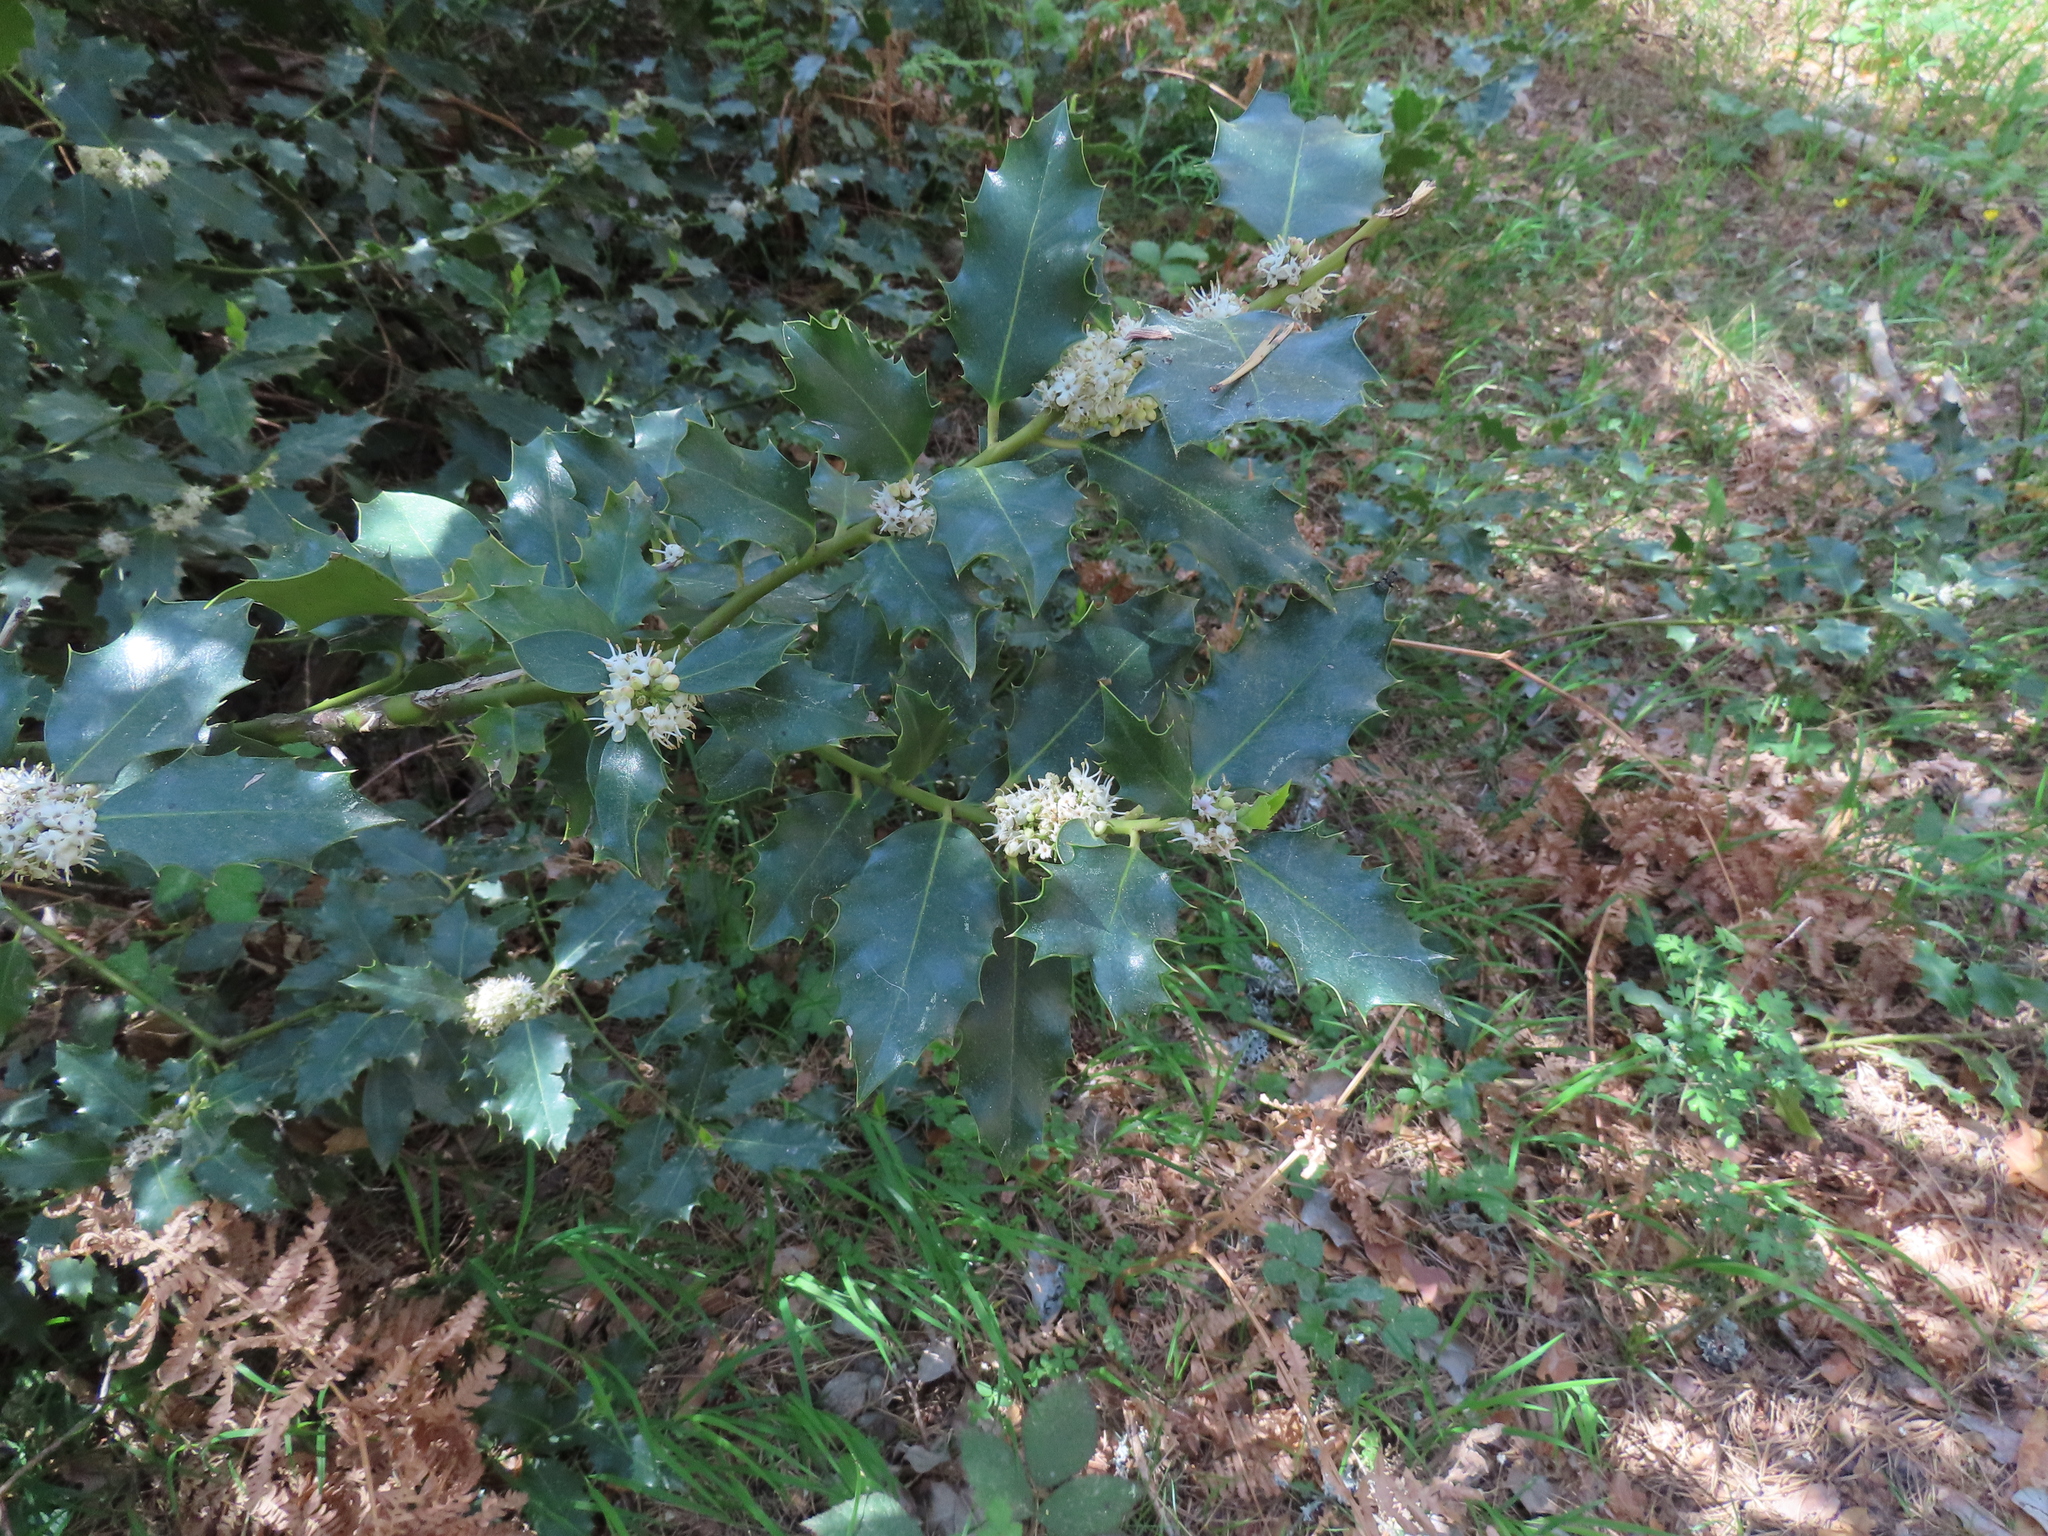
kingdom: Plantae
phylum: Tracheophyta
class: Magnoliopsida
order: Aquifoliales
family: Aquifoliaceae
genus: Ilex
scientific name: Ilex aquifolium
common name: English holly
